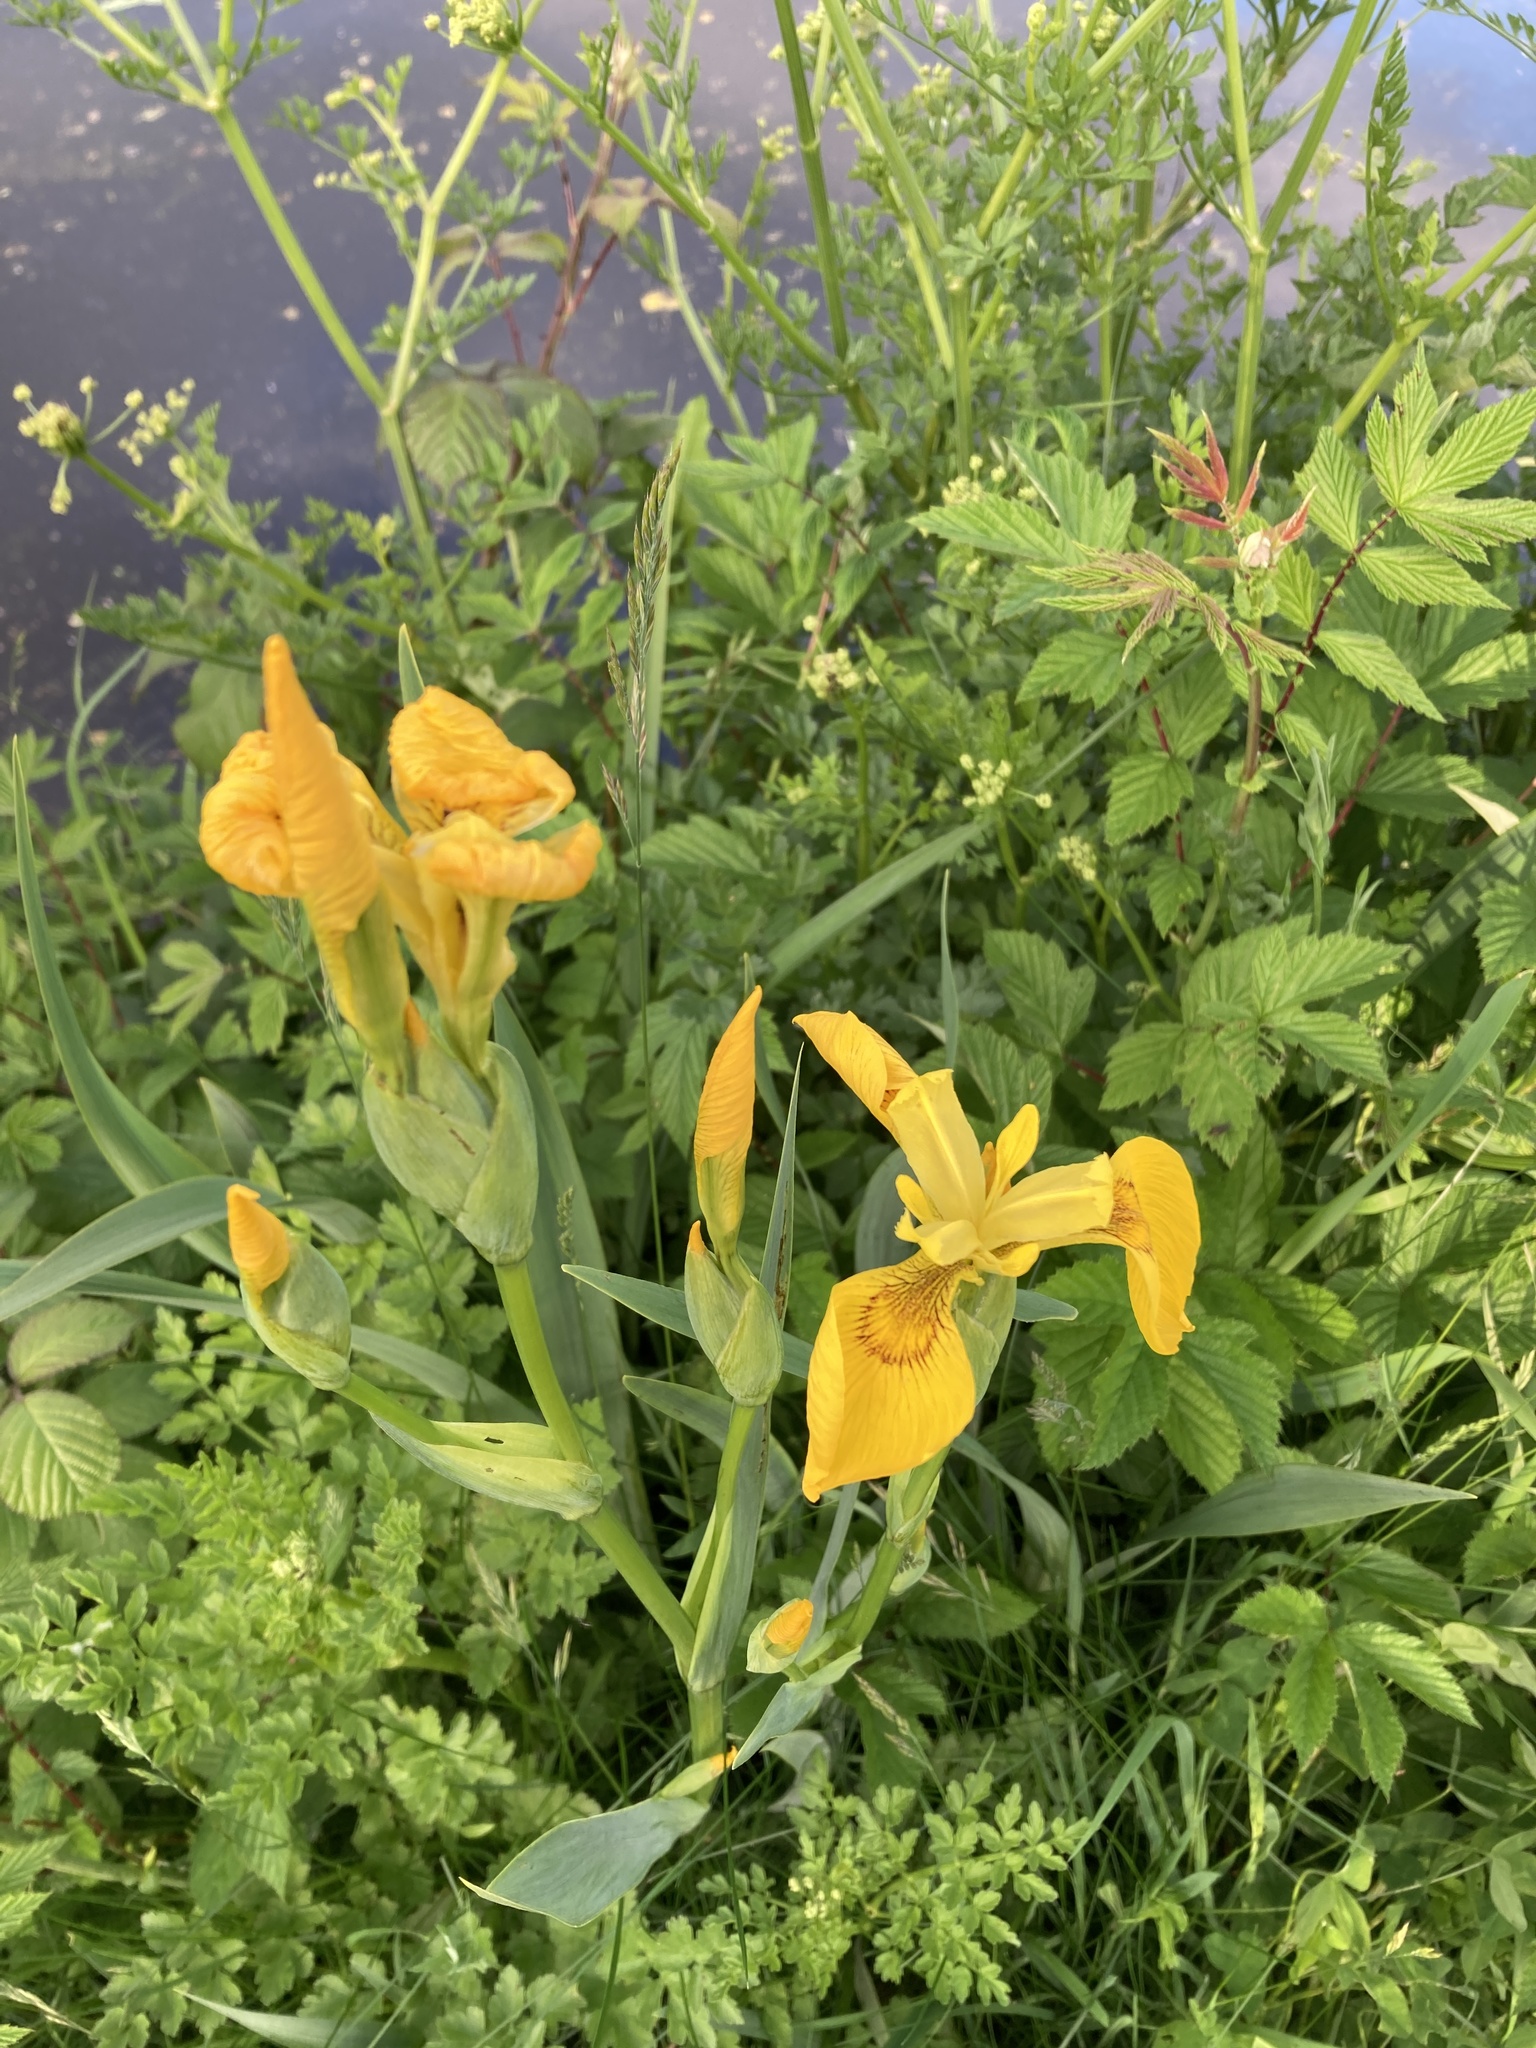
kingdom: Plantae
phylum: Tracheophyta
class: Liliopsida
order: Asparagales
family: Iridaceae
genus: Iris
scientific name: Iris pseudacorus
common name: Yellow flag
